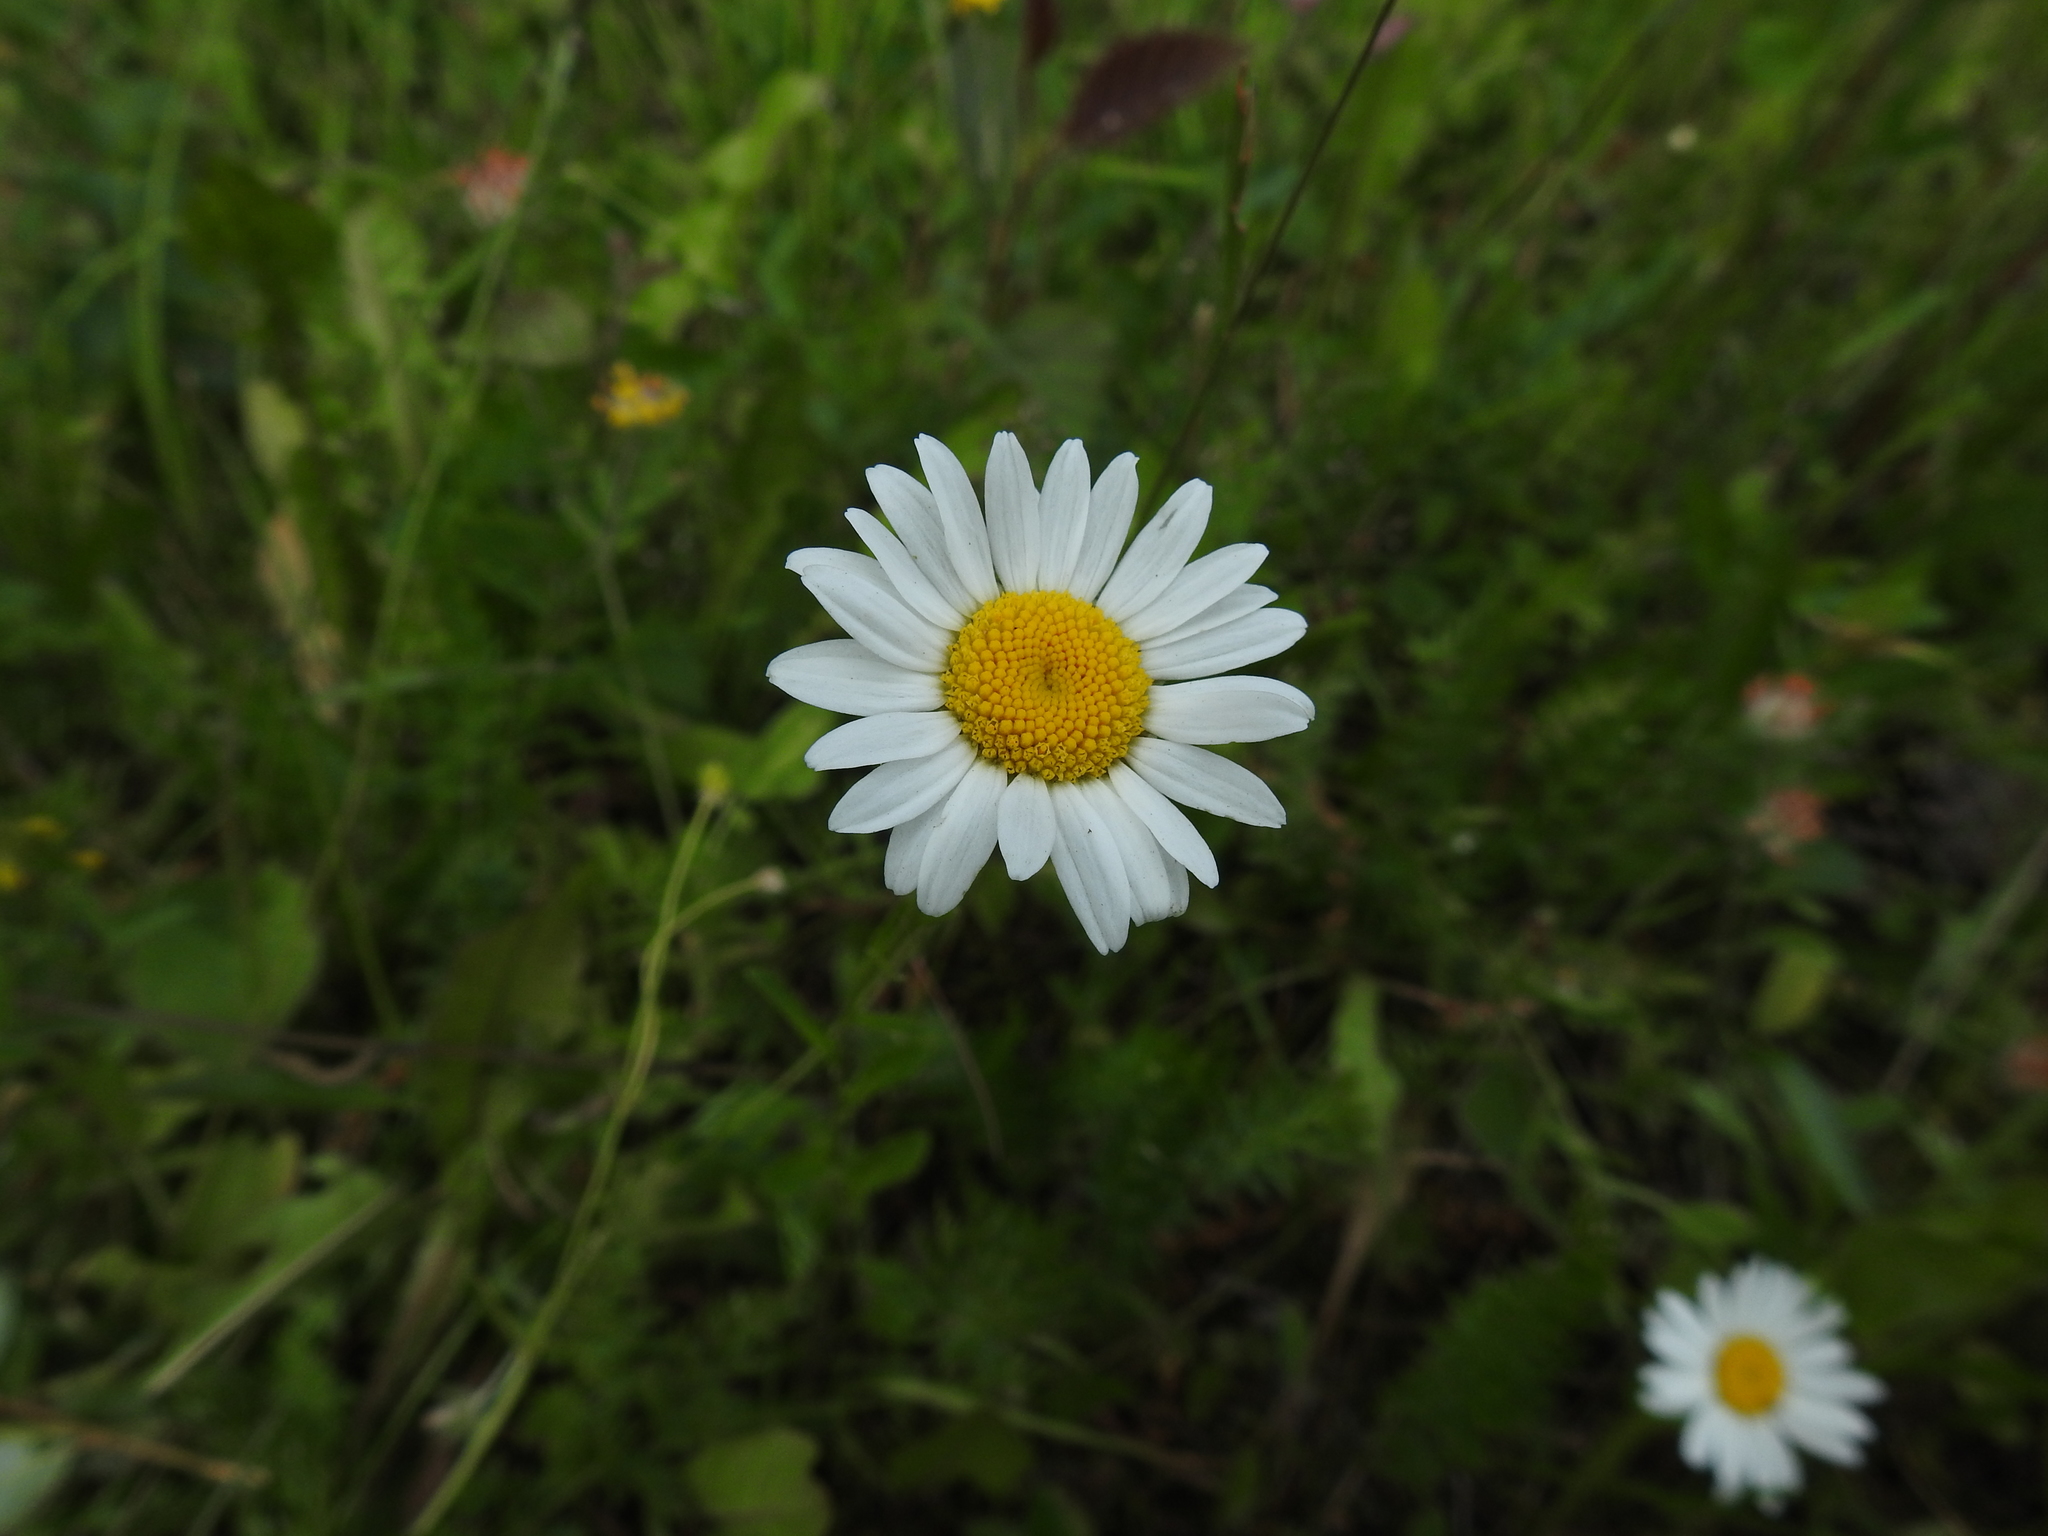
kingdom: Plantae
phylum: Tracheophyta
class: Magnoliopsida
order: Asterales
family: Asteraceae
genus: Leucanthemum
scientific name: Leucanthemum vulgare
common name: Oxeye daisy
